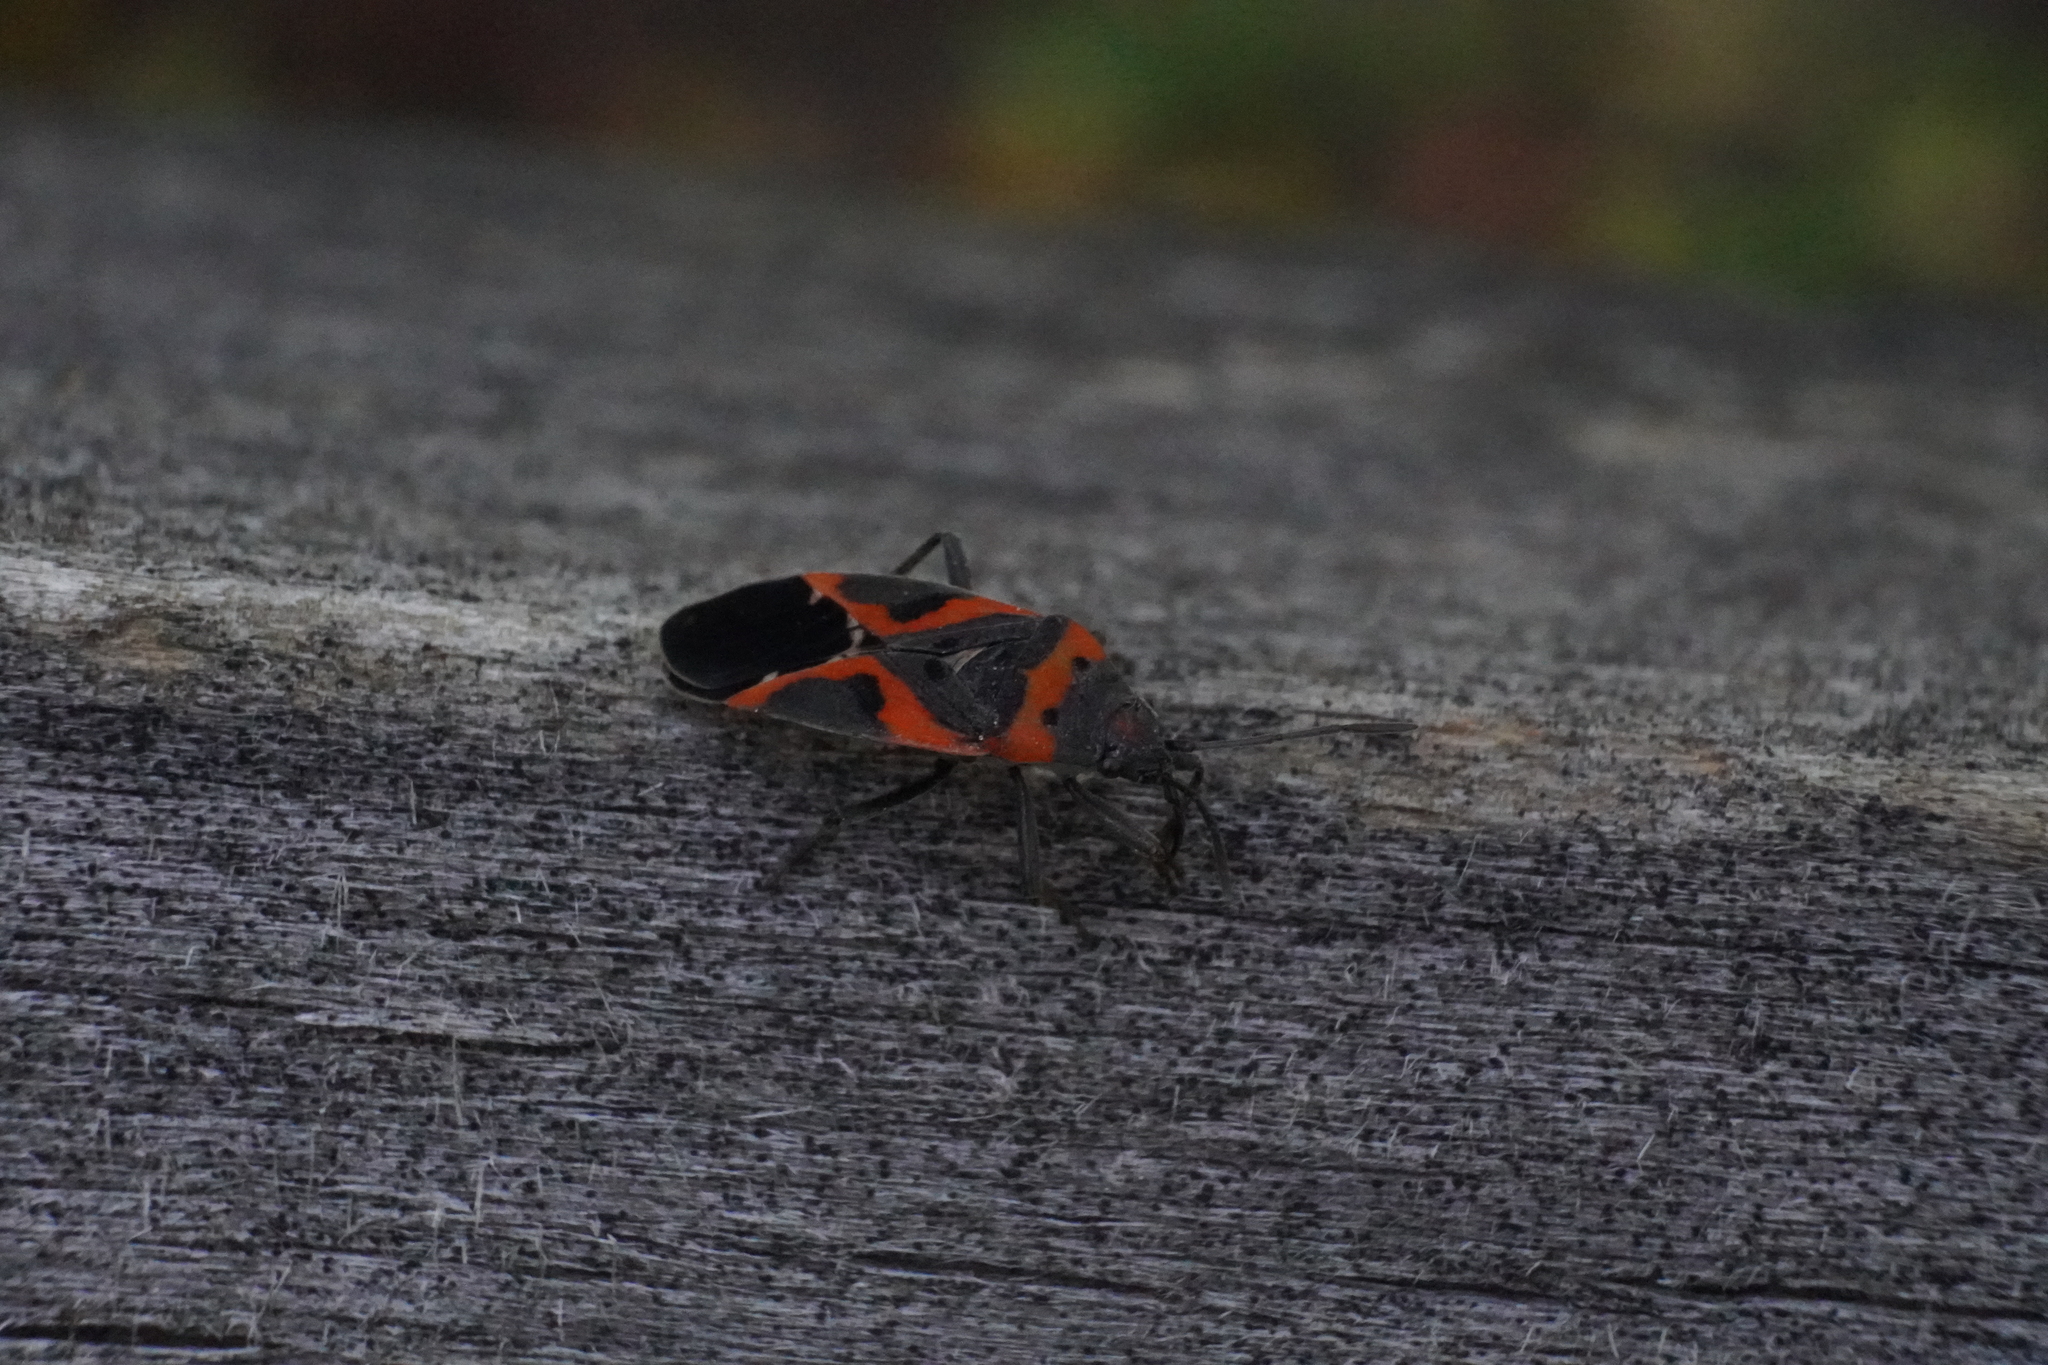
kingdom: Animalia
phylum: Arthropoda
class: Insecta
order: Hemiptera
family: Lygaeidae
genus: Lygaeus
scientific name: Lygaeus kalmii
